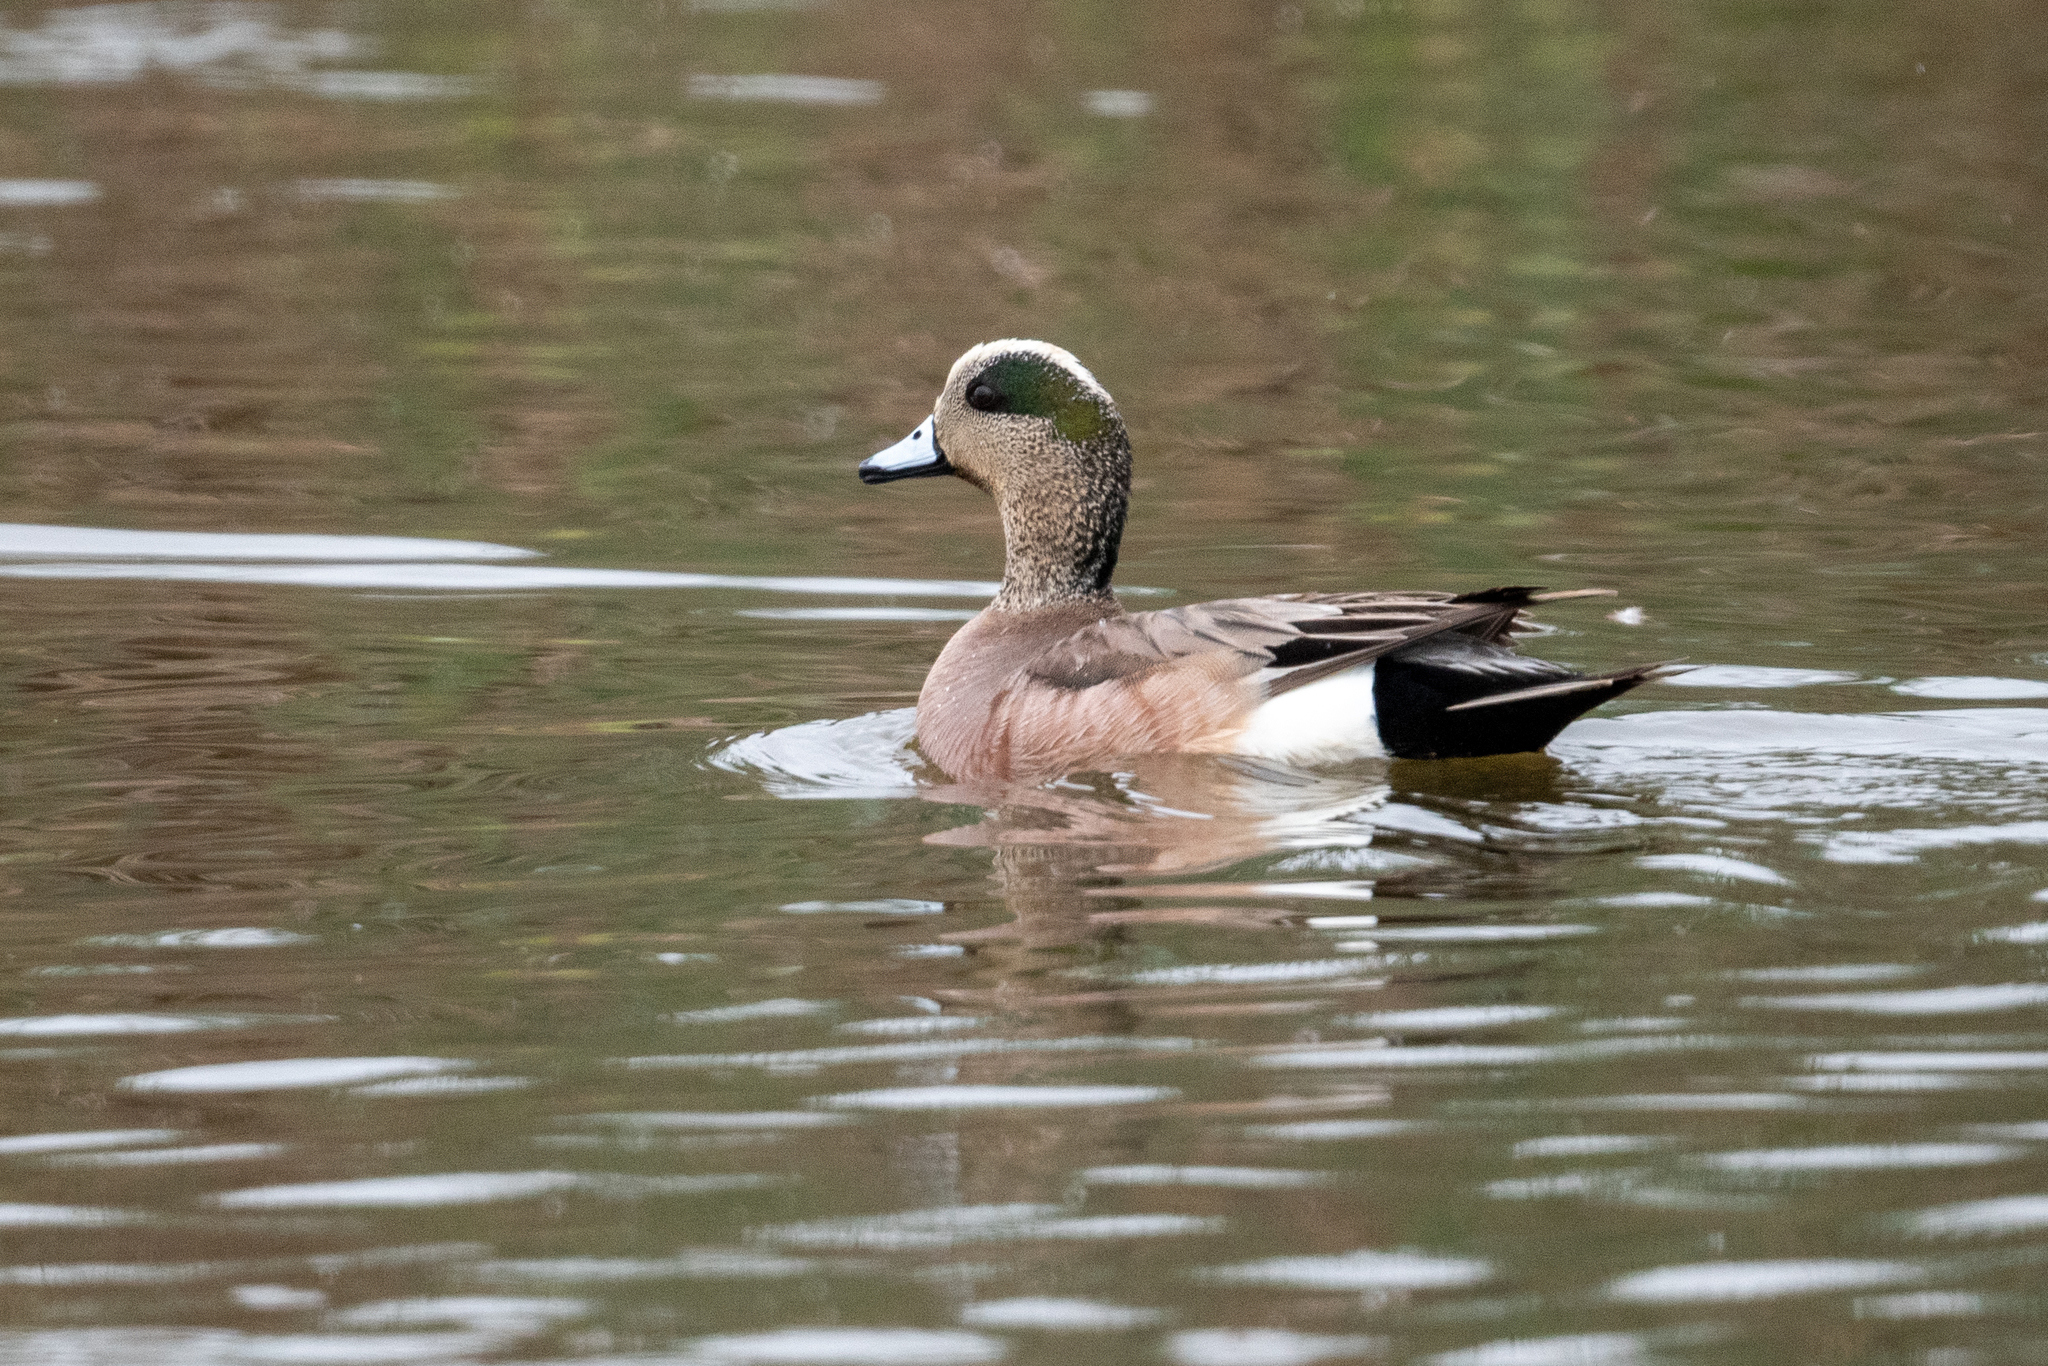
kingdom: Animalia
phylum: Chordata
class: Aves
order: Anseriformes
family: Anatidae
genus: Mareca
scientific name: Mareca americana
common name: American wigeon
